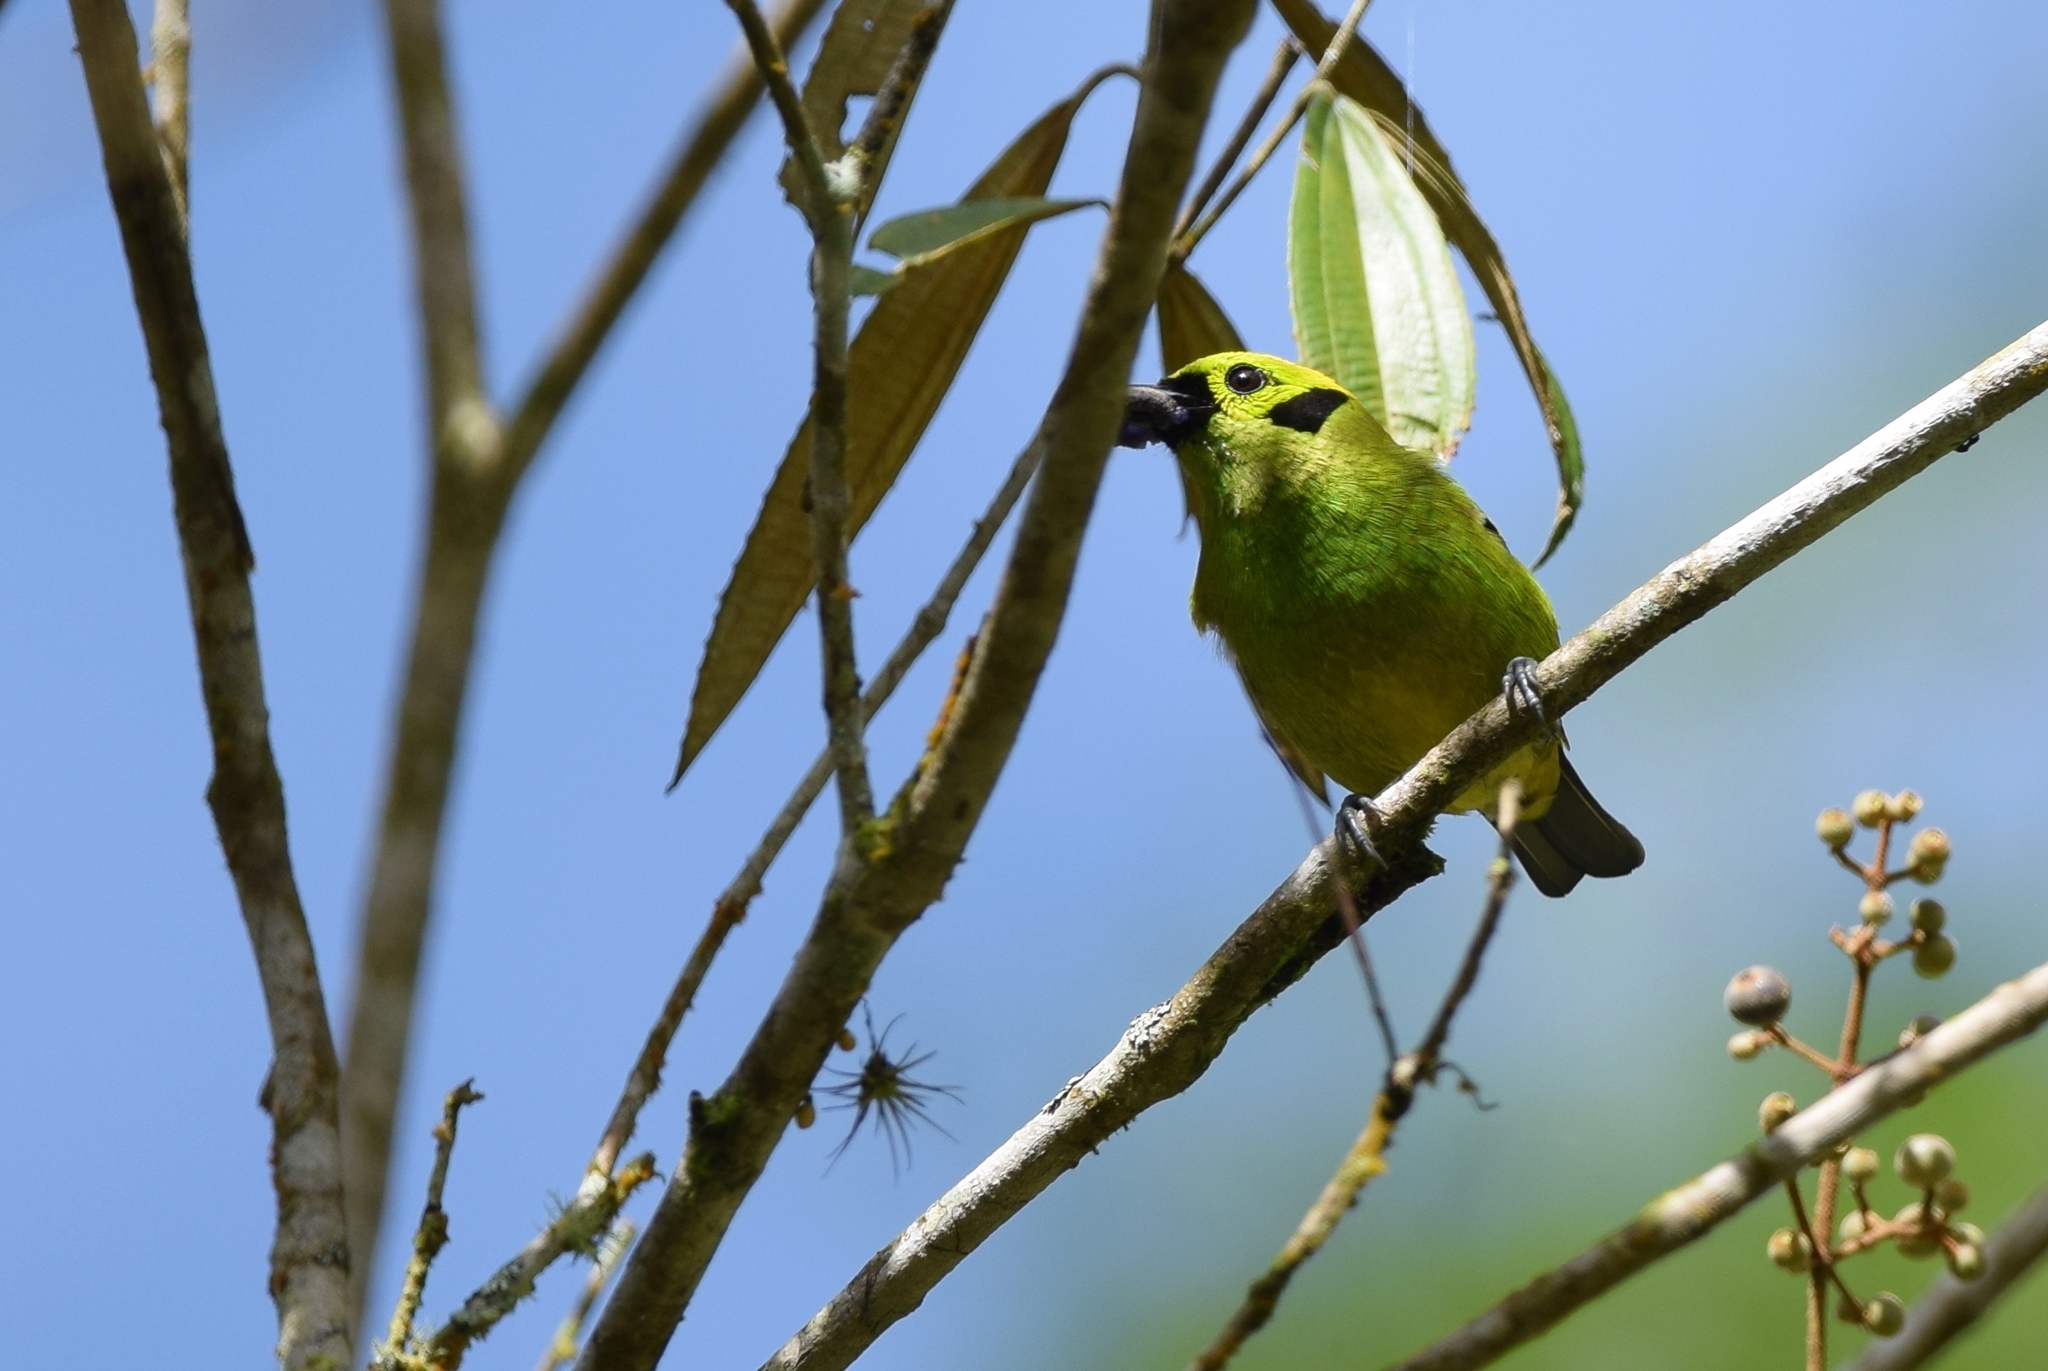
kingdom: Animalia
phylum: Chordata
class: Aves
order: Passeriformes
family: Thraupidae
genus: Tangara
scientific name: Tangara florida
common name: Emerald tanager
